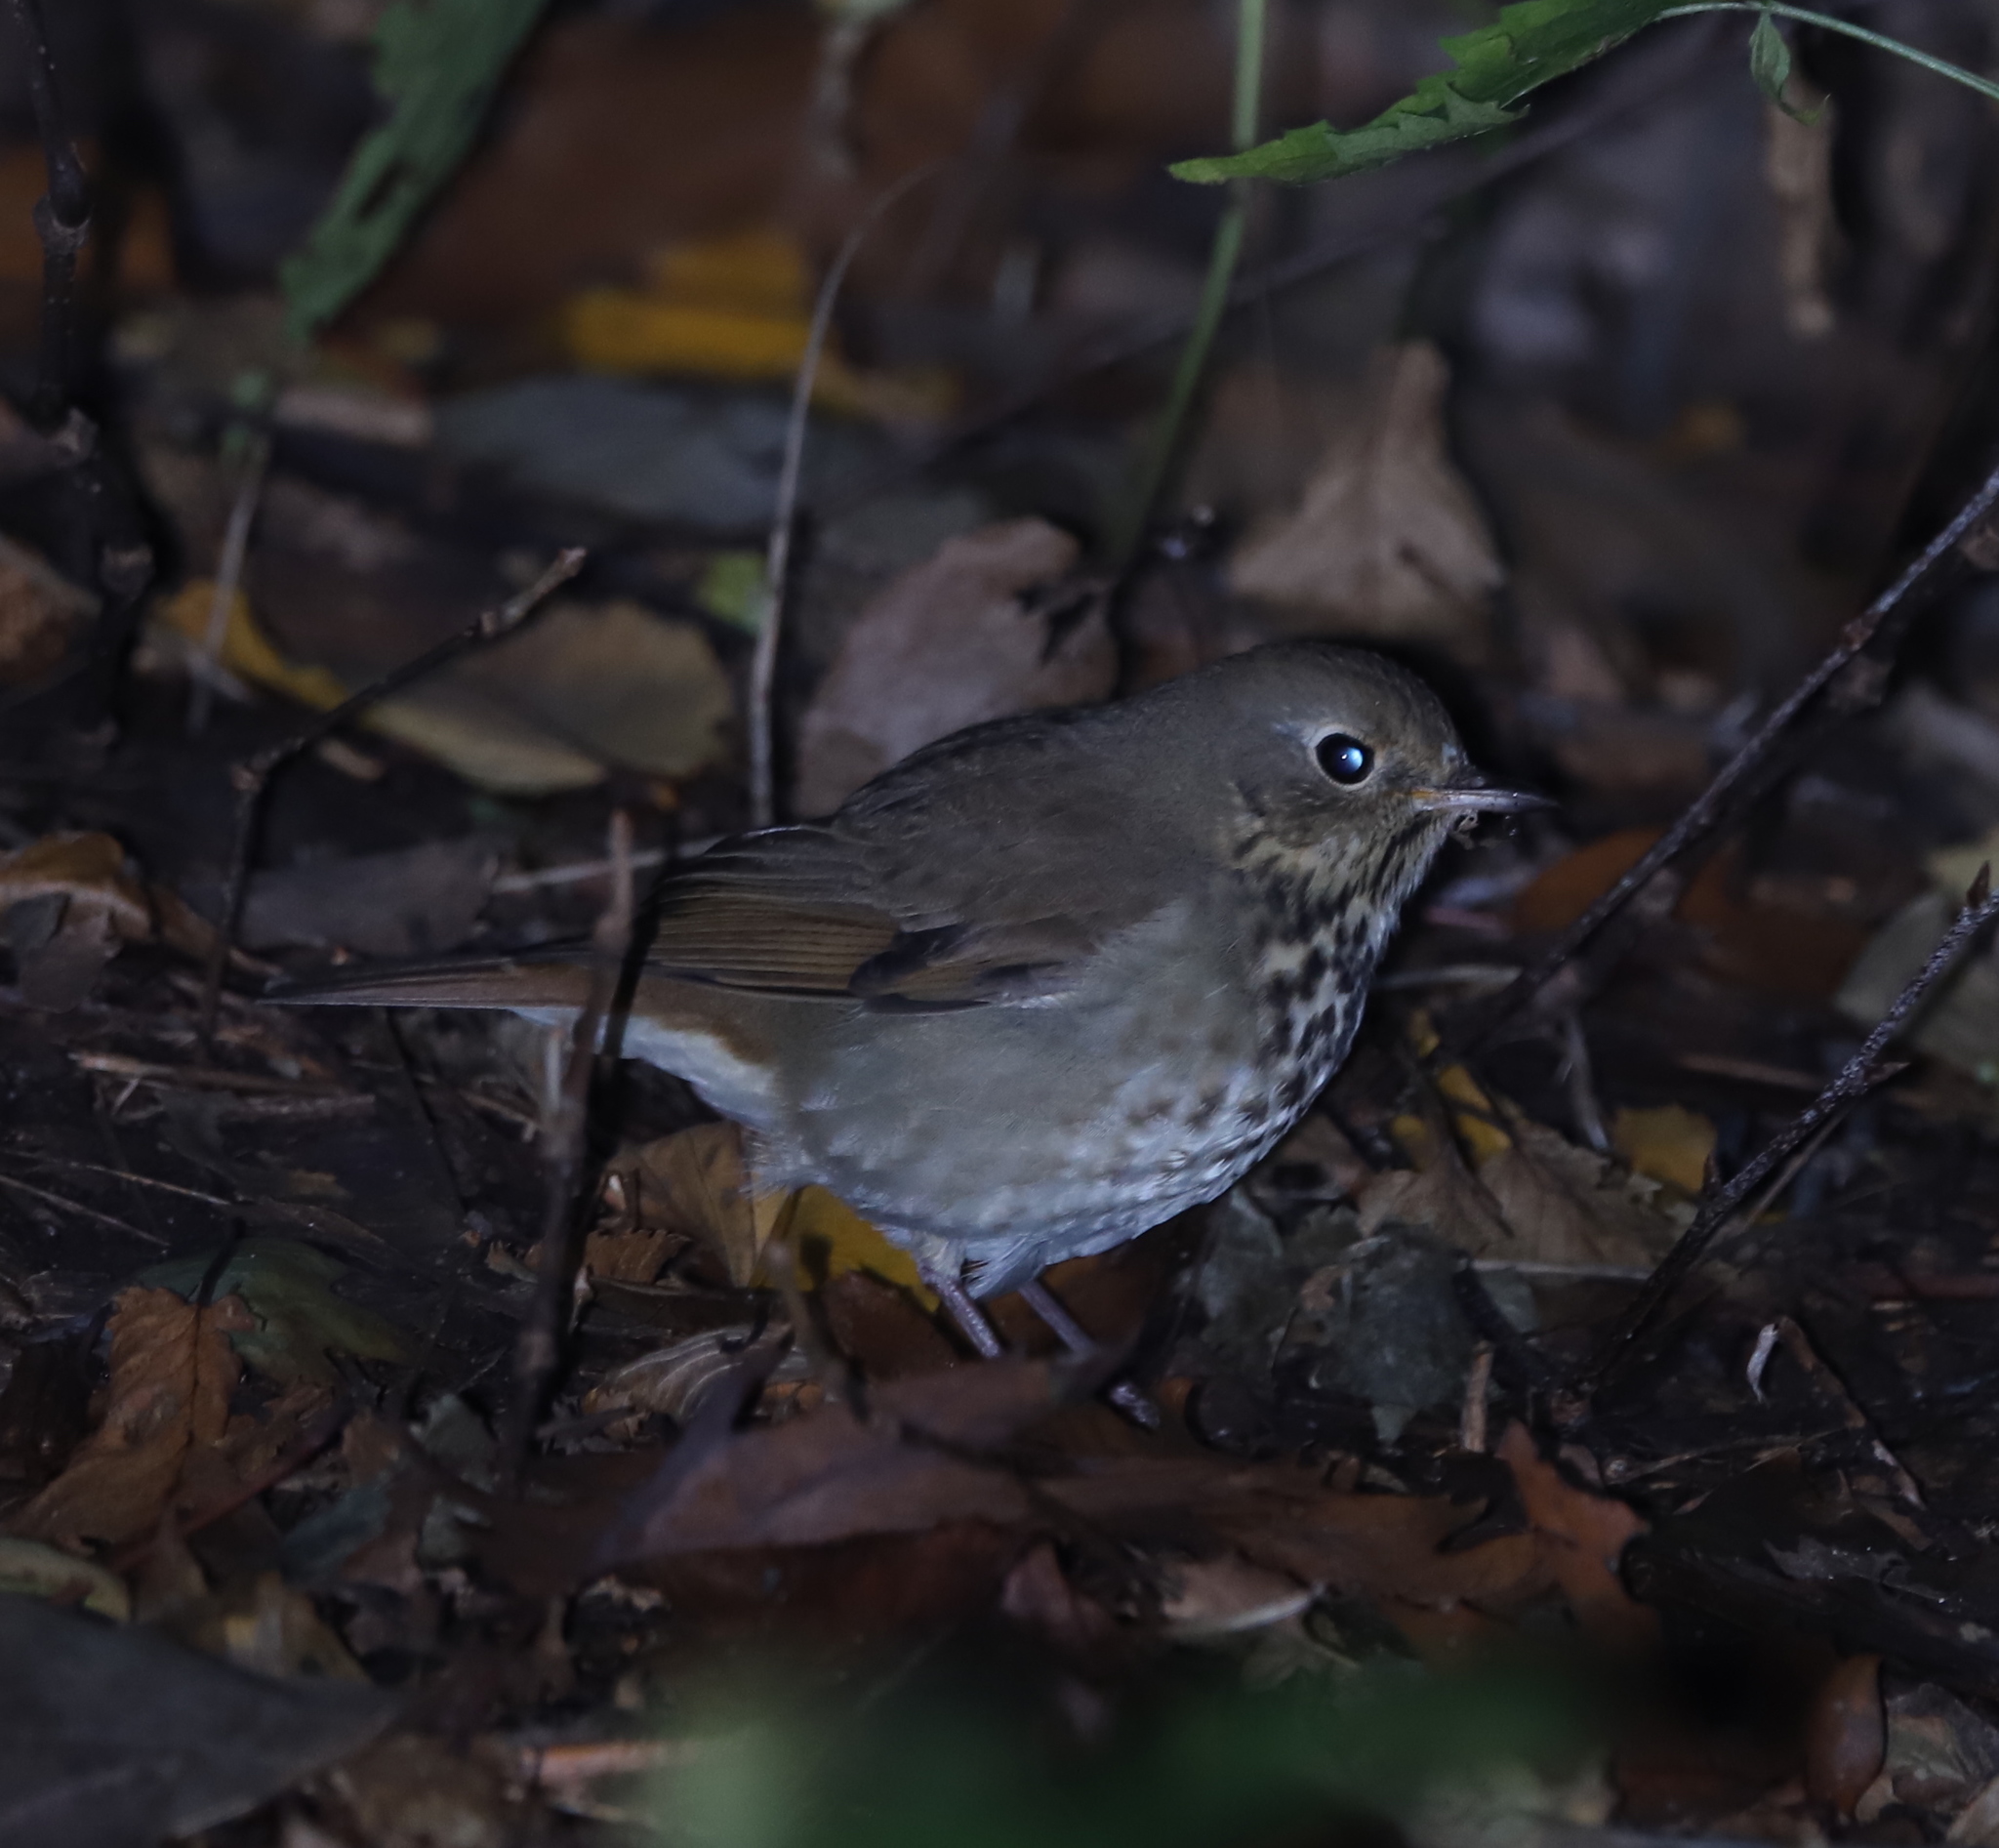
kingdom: Animalia
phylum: Chordata
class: Aves
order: Passeriformes
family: Turdidae
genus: Catharus
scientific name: Catharus guttatus
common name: Hermit thrush
